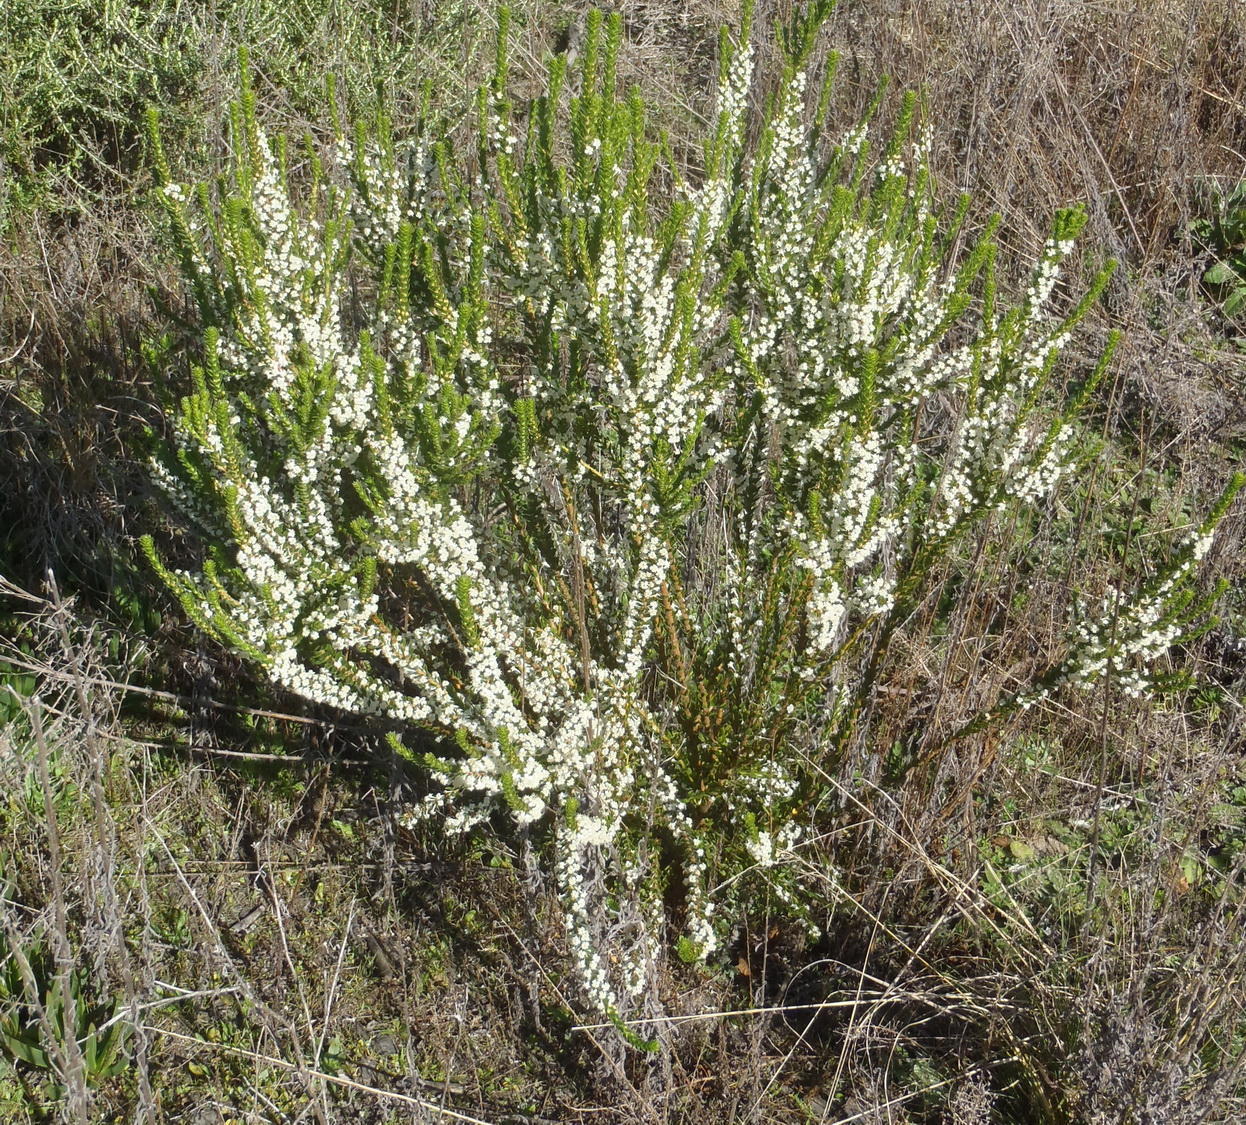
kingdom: Plantae
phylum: Tracheophyta
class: Magnoliopsida
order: Malvales
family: Thymelaeaceae
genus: Struthiola
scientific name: Struthiola hirsuta
